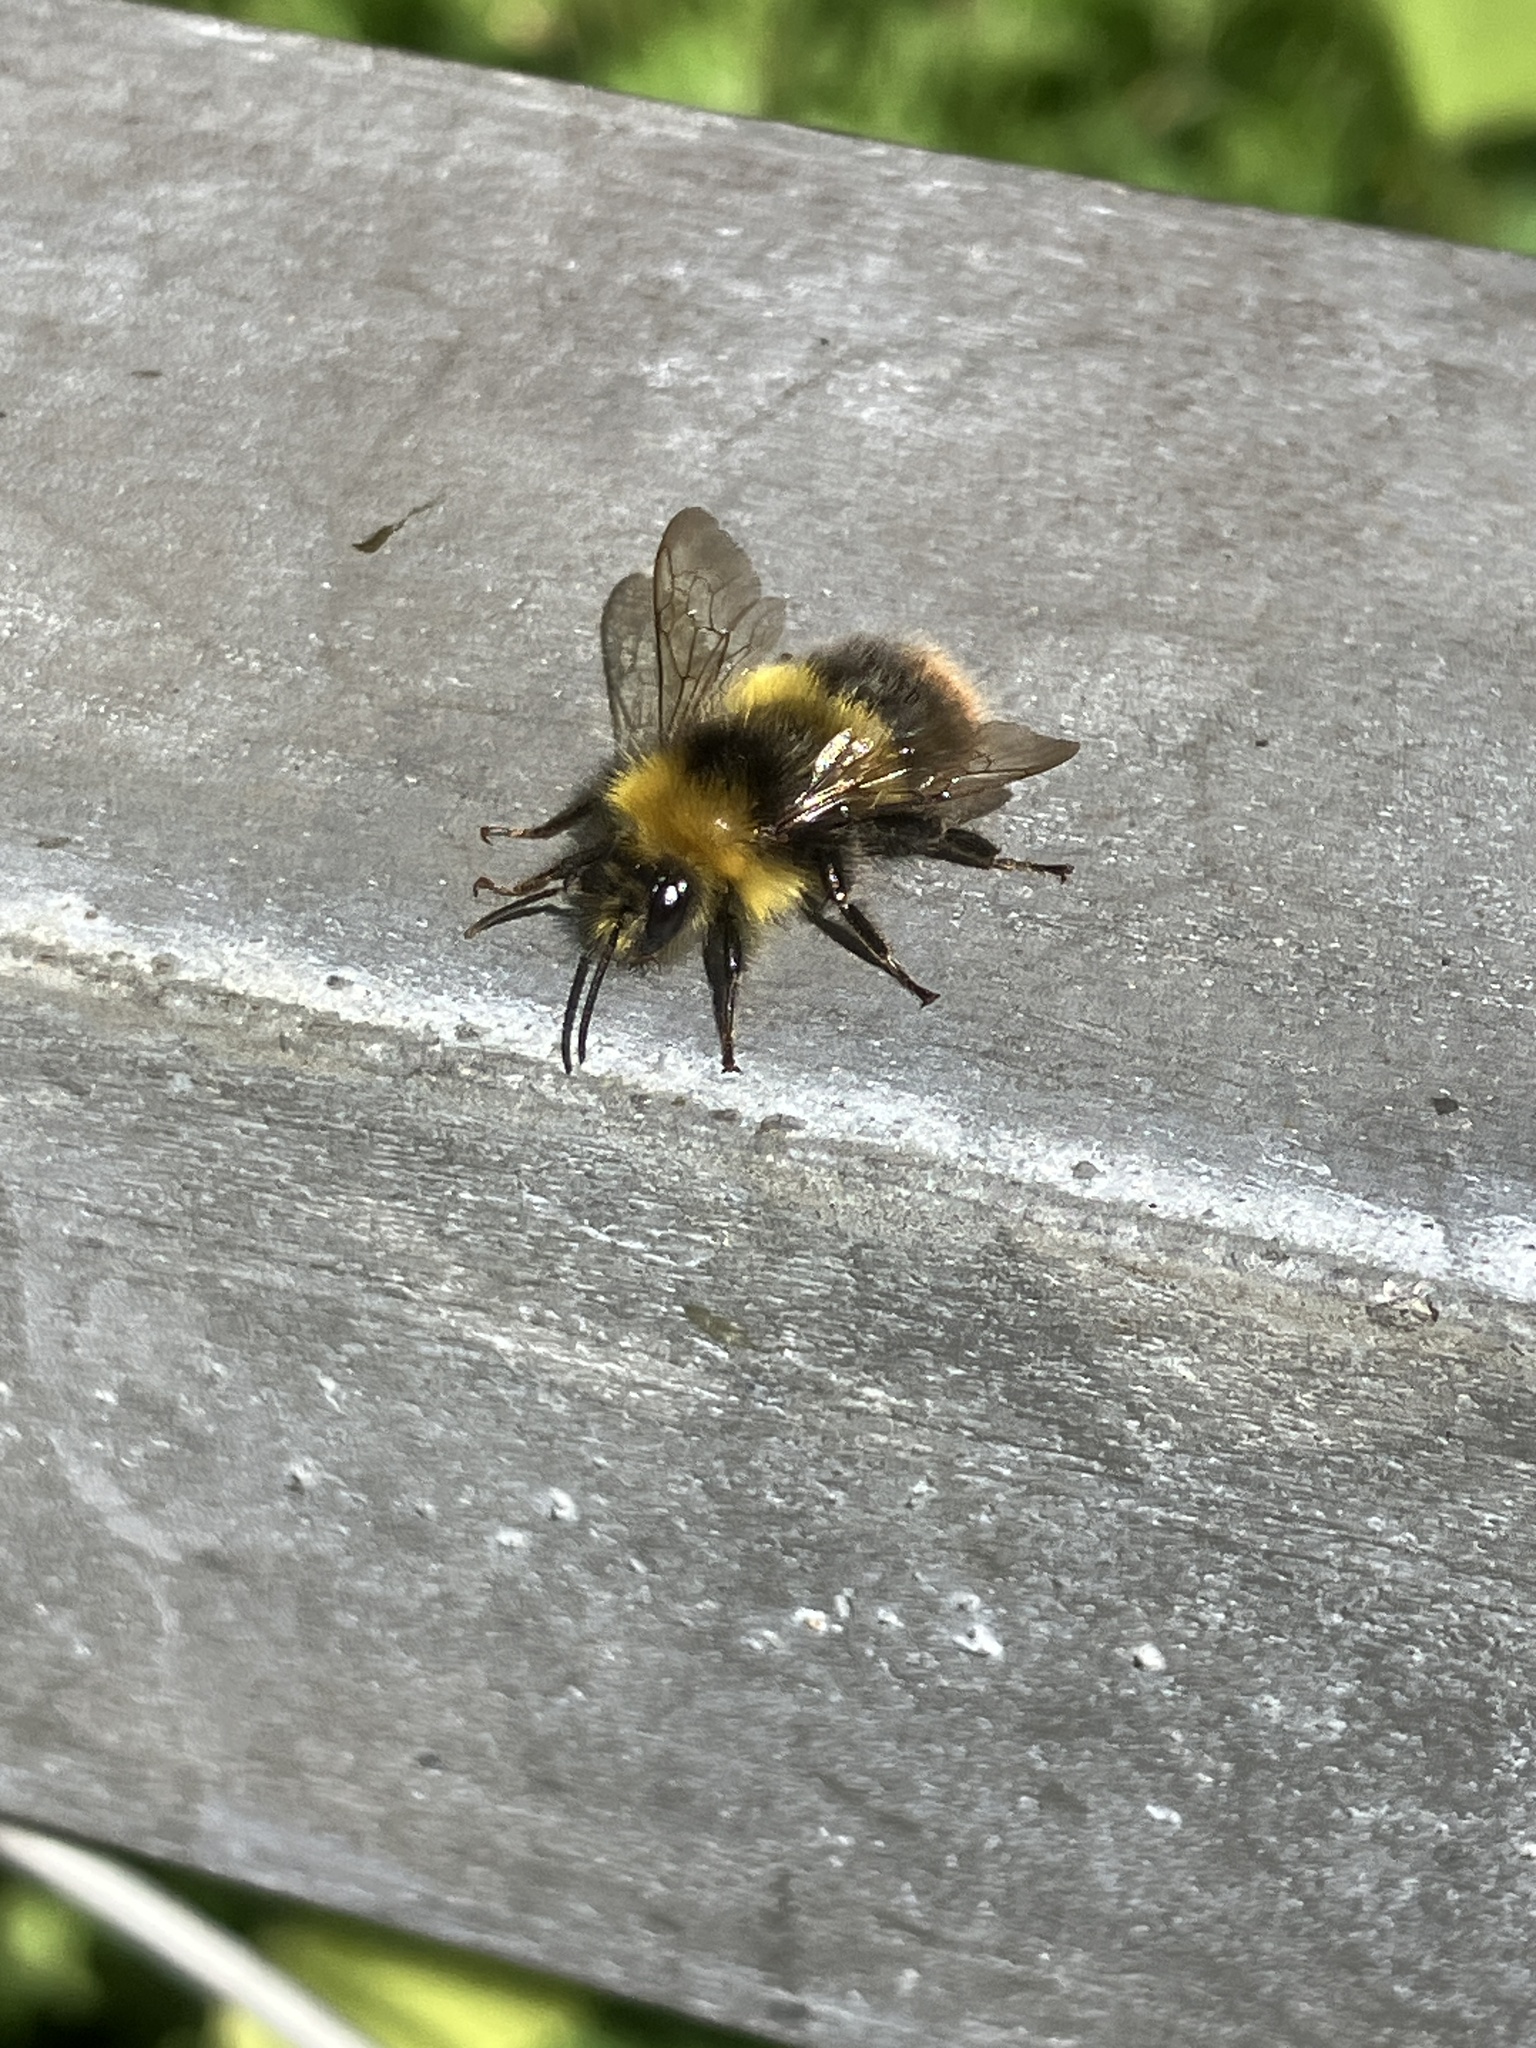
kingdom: Animalia
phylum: Arthropoda
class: Insecta
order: Hymenoptera
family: Apidae
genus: Bombus
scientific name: Bombus pratorum
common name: Early humble-bee
